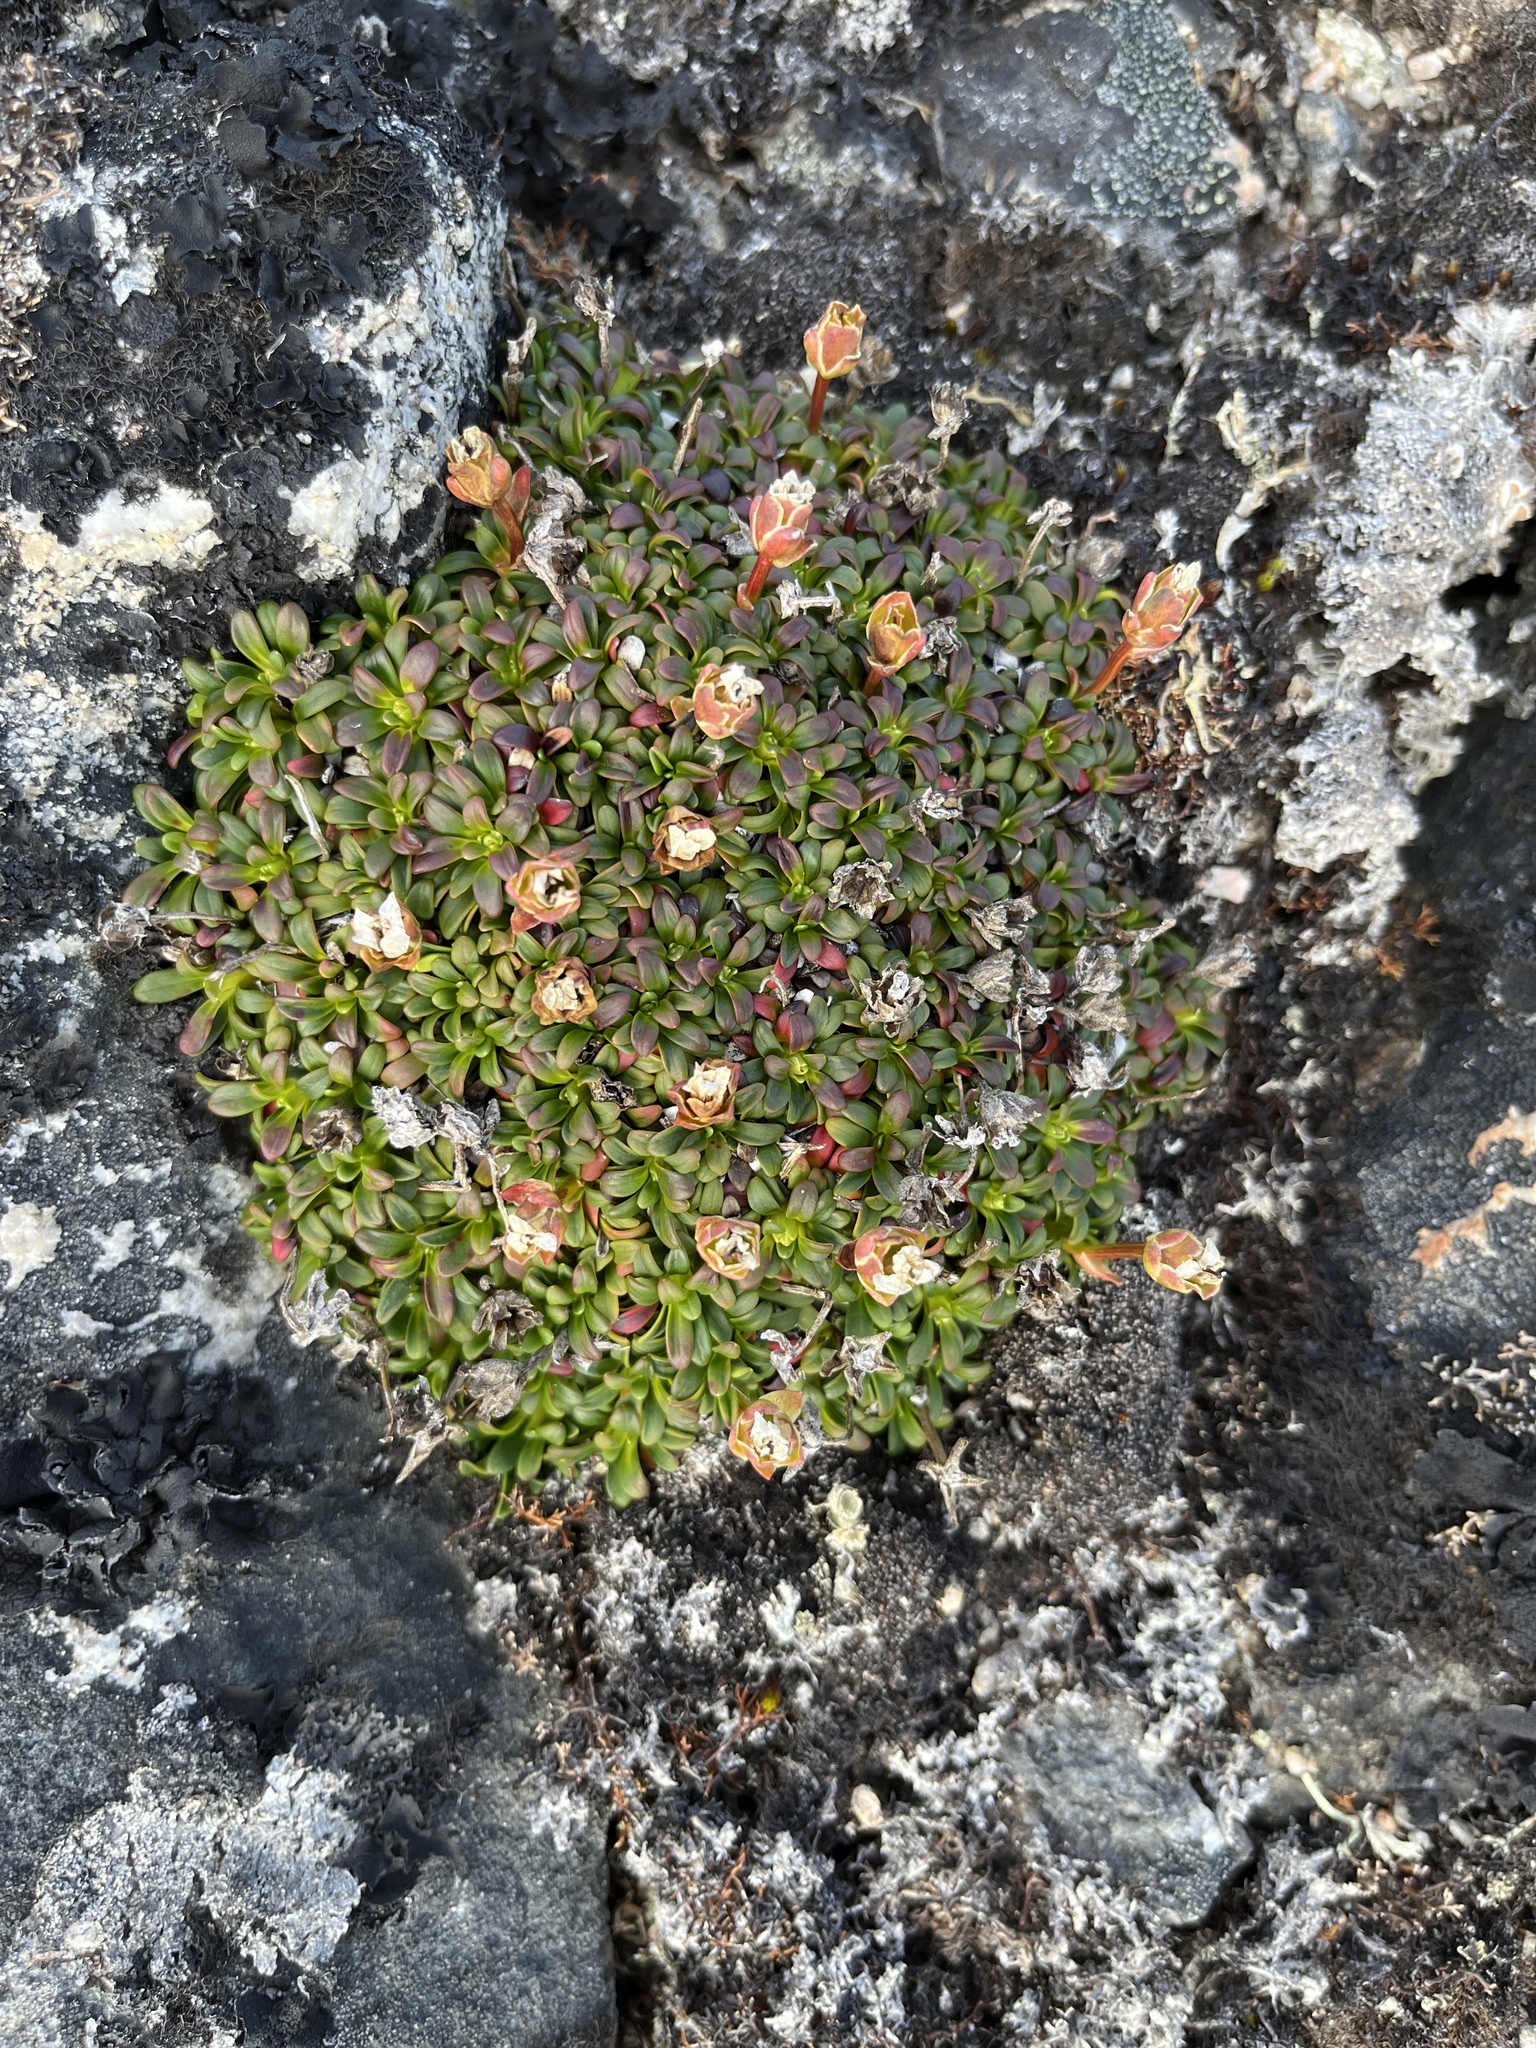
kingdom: Plantae
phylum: Tracheophyta
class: Magnoliopsida
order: Ericales
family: Diapensiaceae
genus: Diapensia
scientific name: Diapensia lapponica
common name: Diapensia
